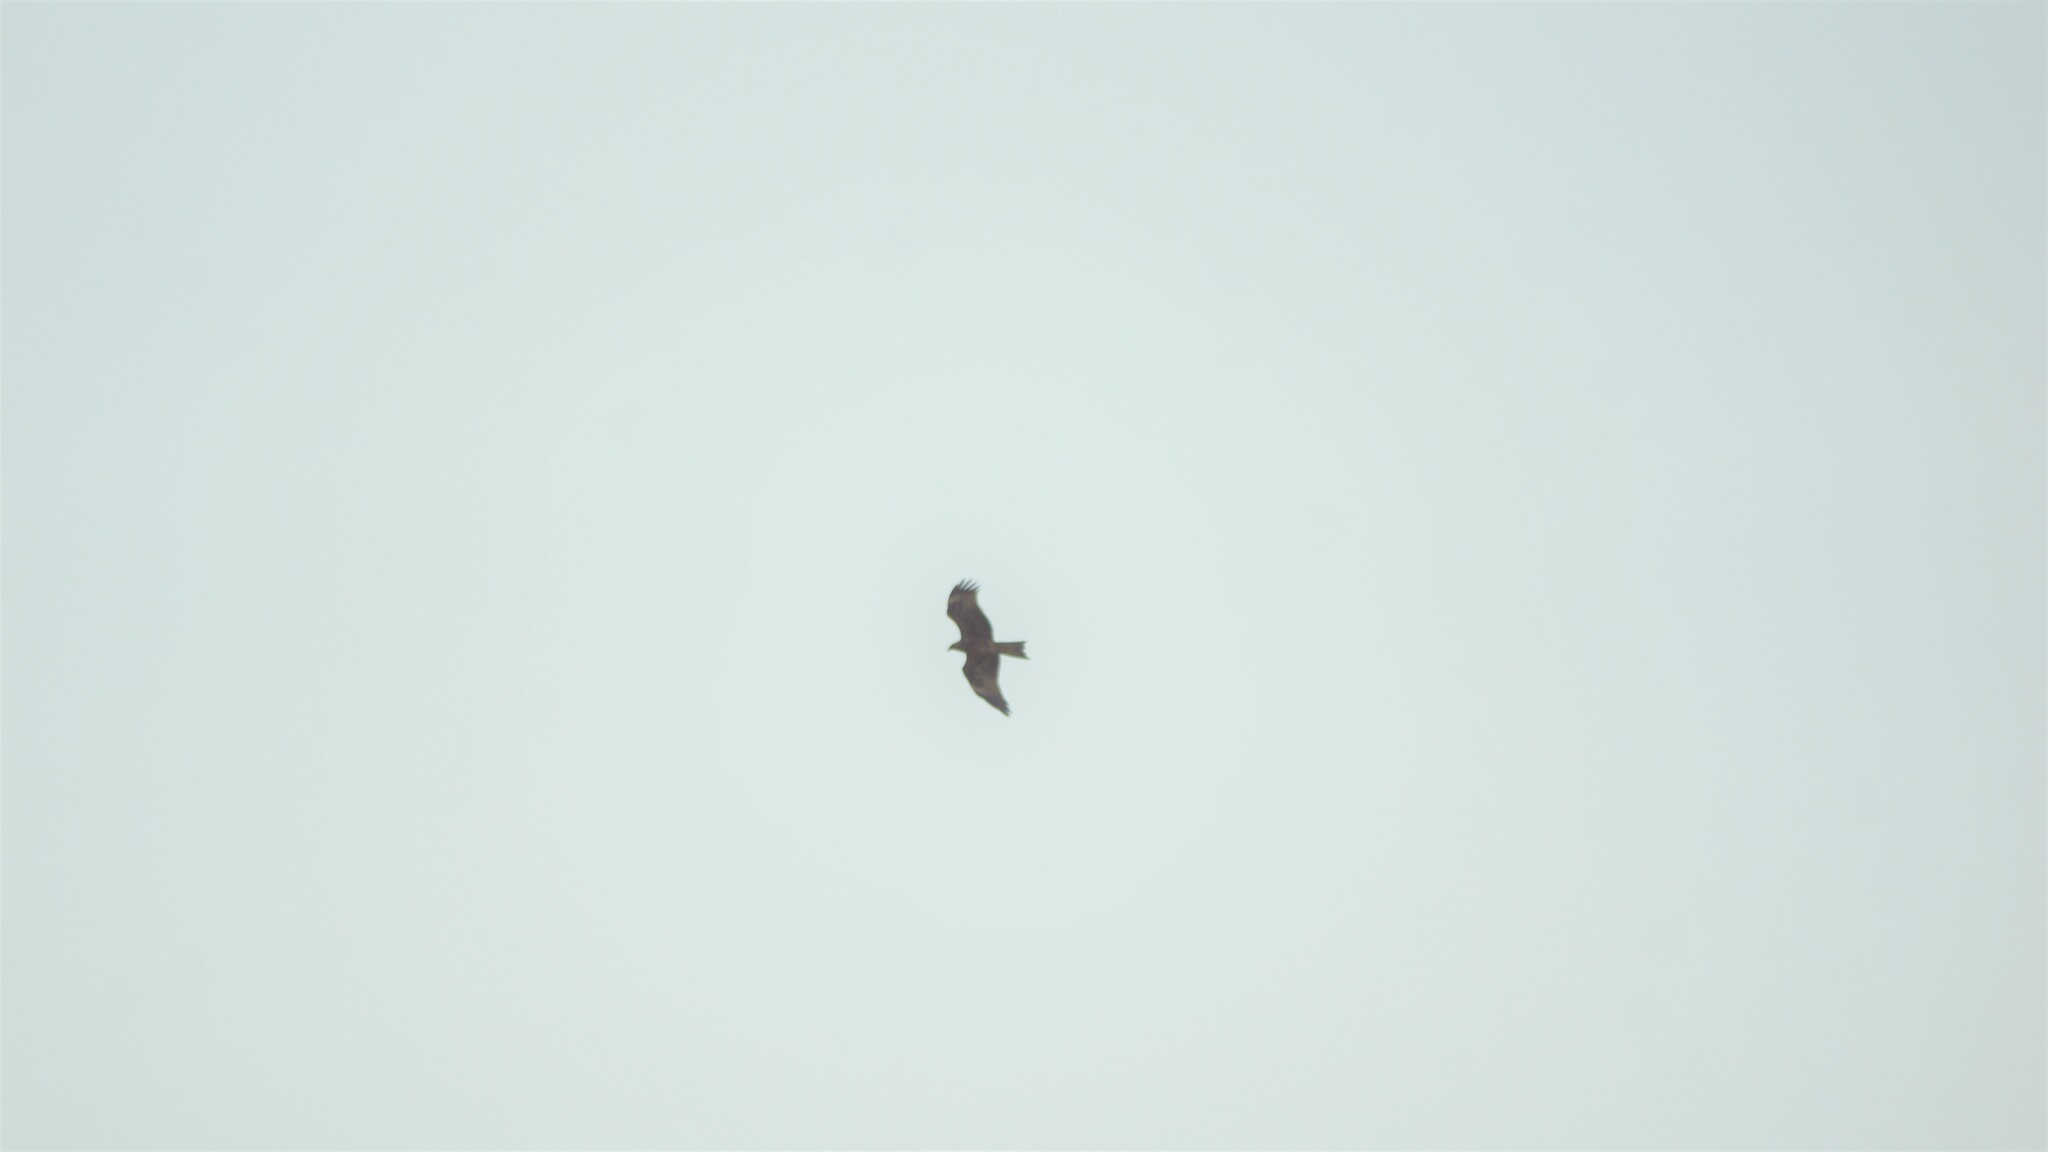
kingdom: Animalia
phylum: Chordata
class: Aves
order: Accipitriformes
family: Accipitridae
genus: Milvus
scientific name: Milvus migrans
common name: Black kite
